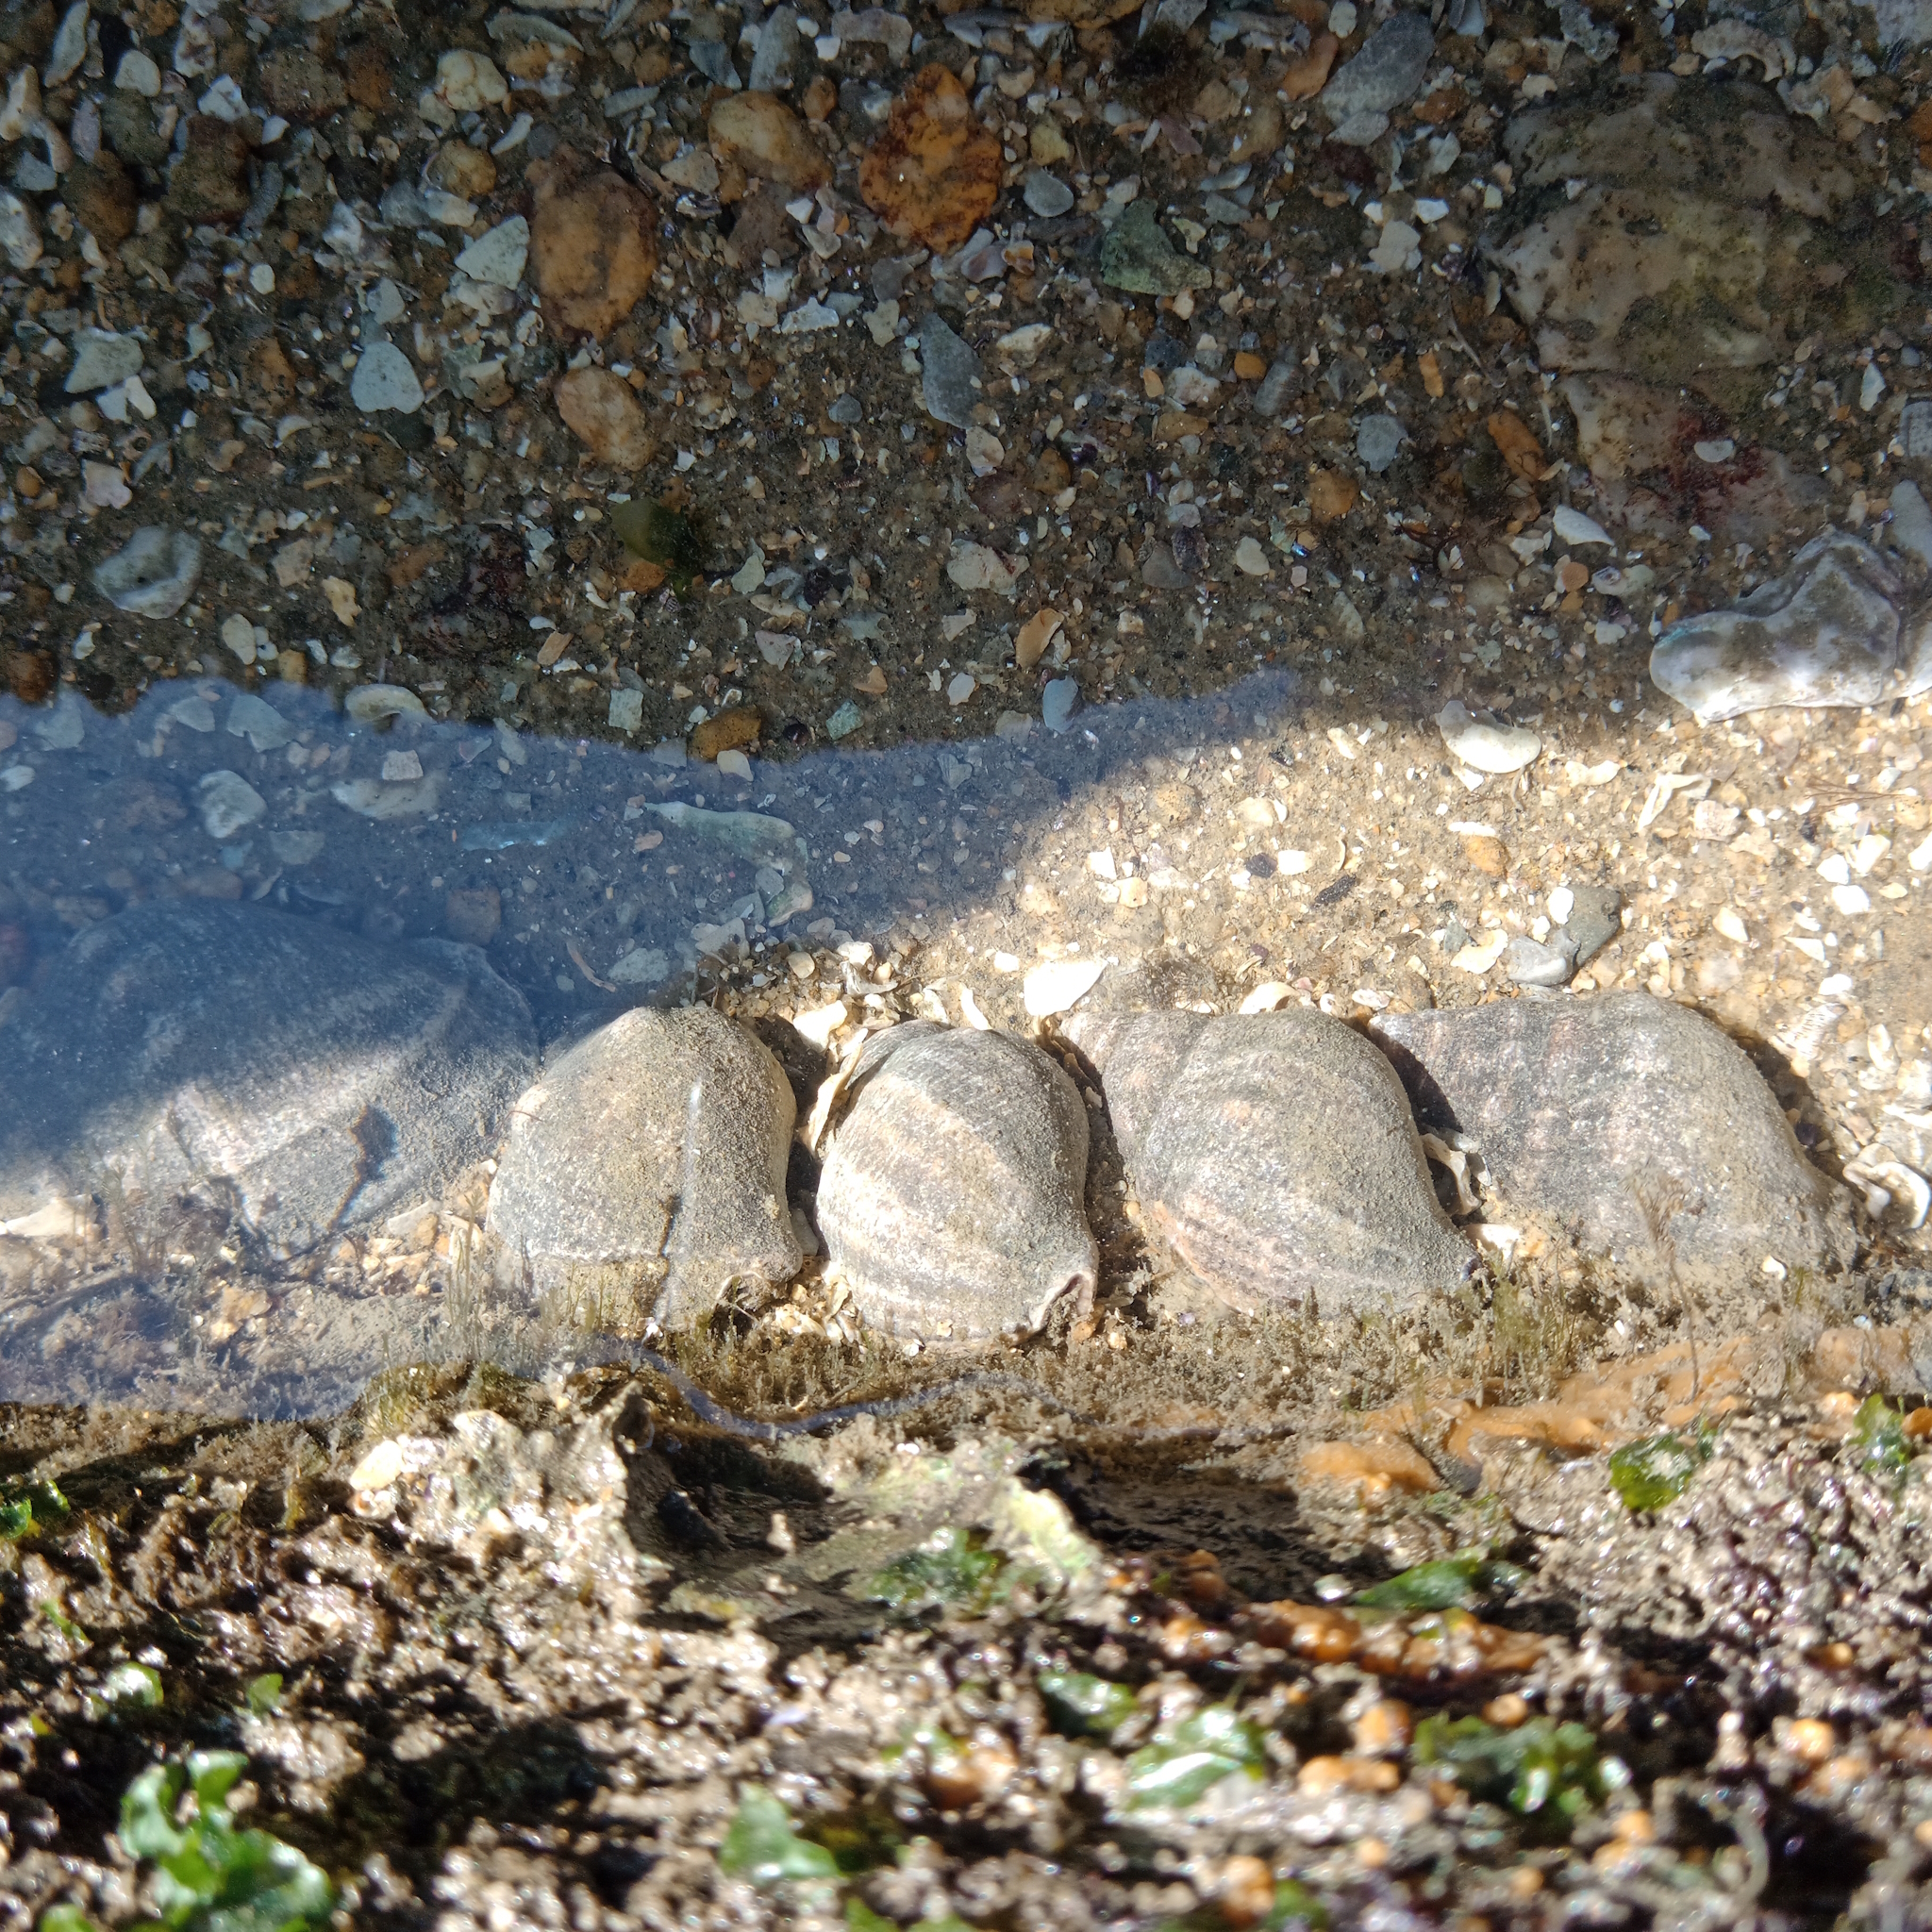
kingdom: Animalia
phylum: Mollusca
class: Gastropoda
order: Neogastropoda
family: Muricidae
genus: Stramonita
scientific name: Stramonita brasiliensis
